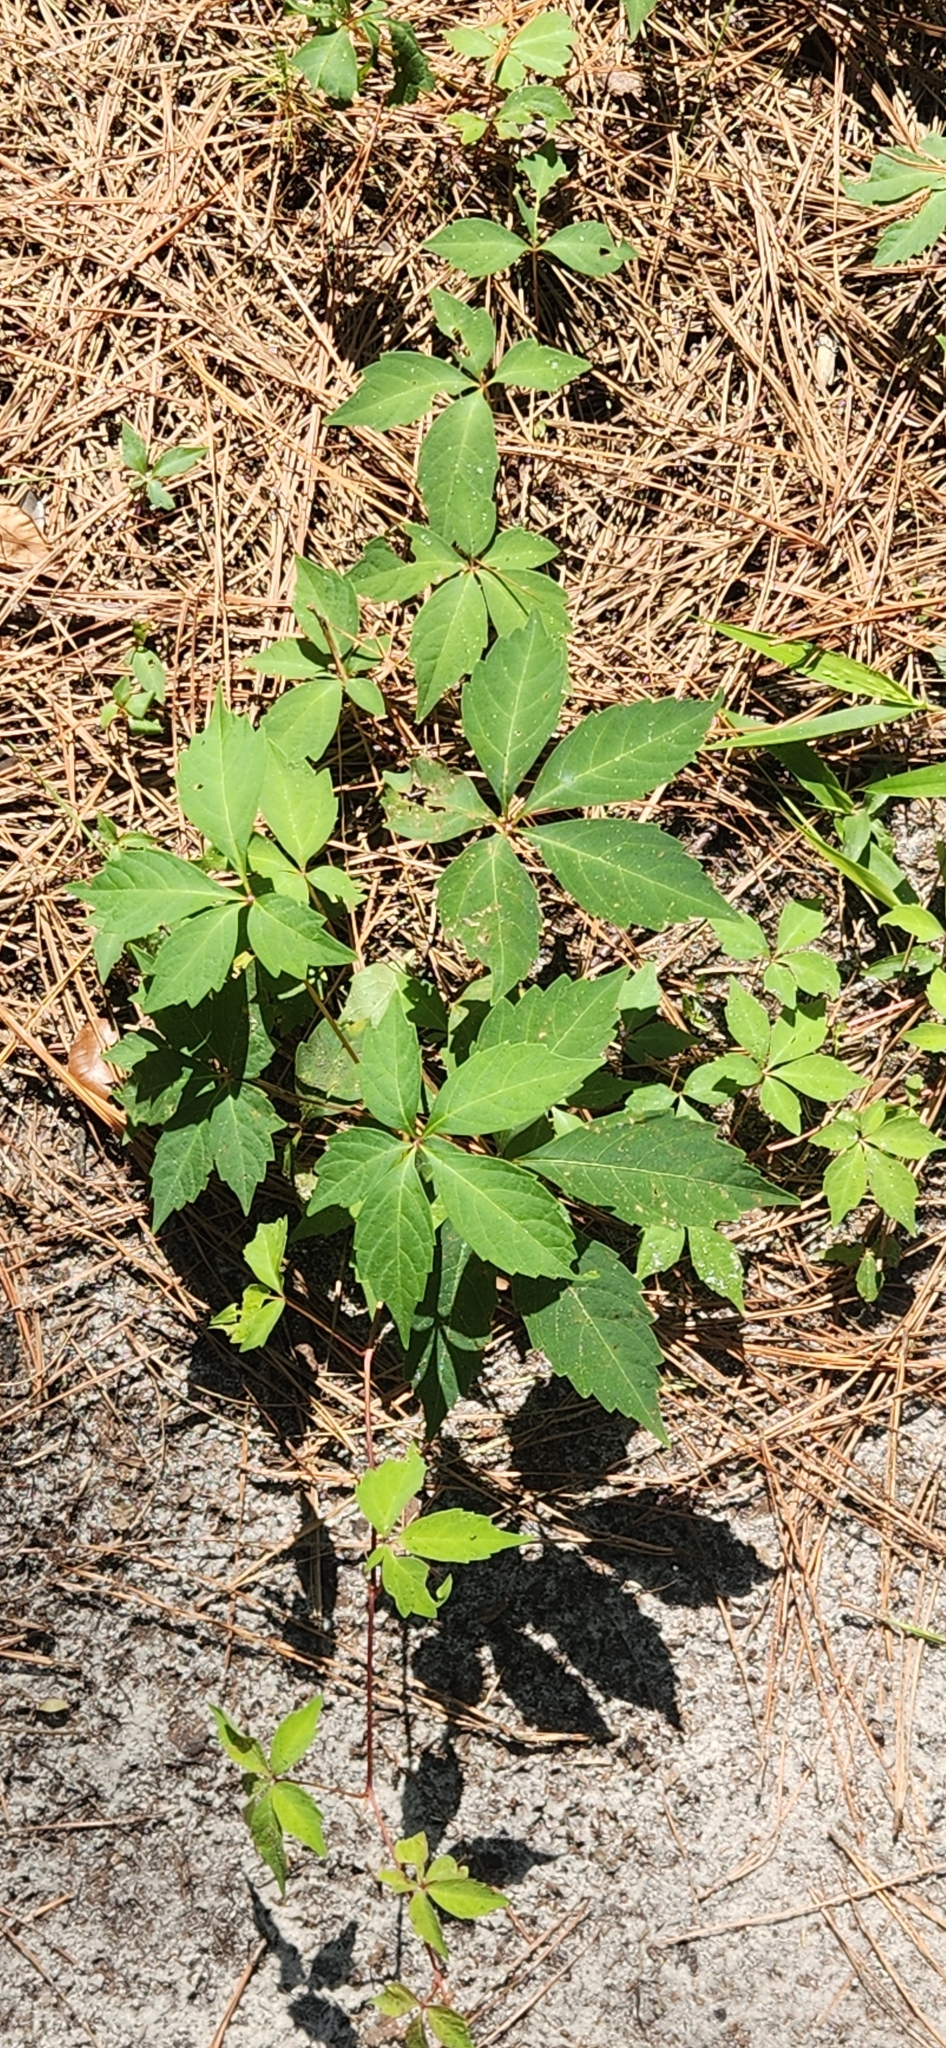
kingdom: Plantae
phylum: Tracheophyta
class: Magnoliopsida
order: Vitales
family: Vitaceae
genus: Parthenocissus
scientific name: Parthenocissus quinquefolia
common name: Virginia-creeper
